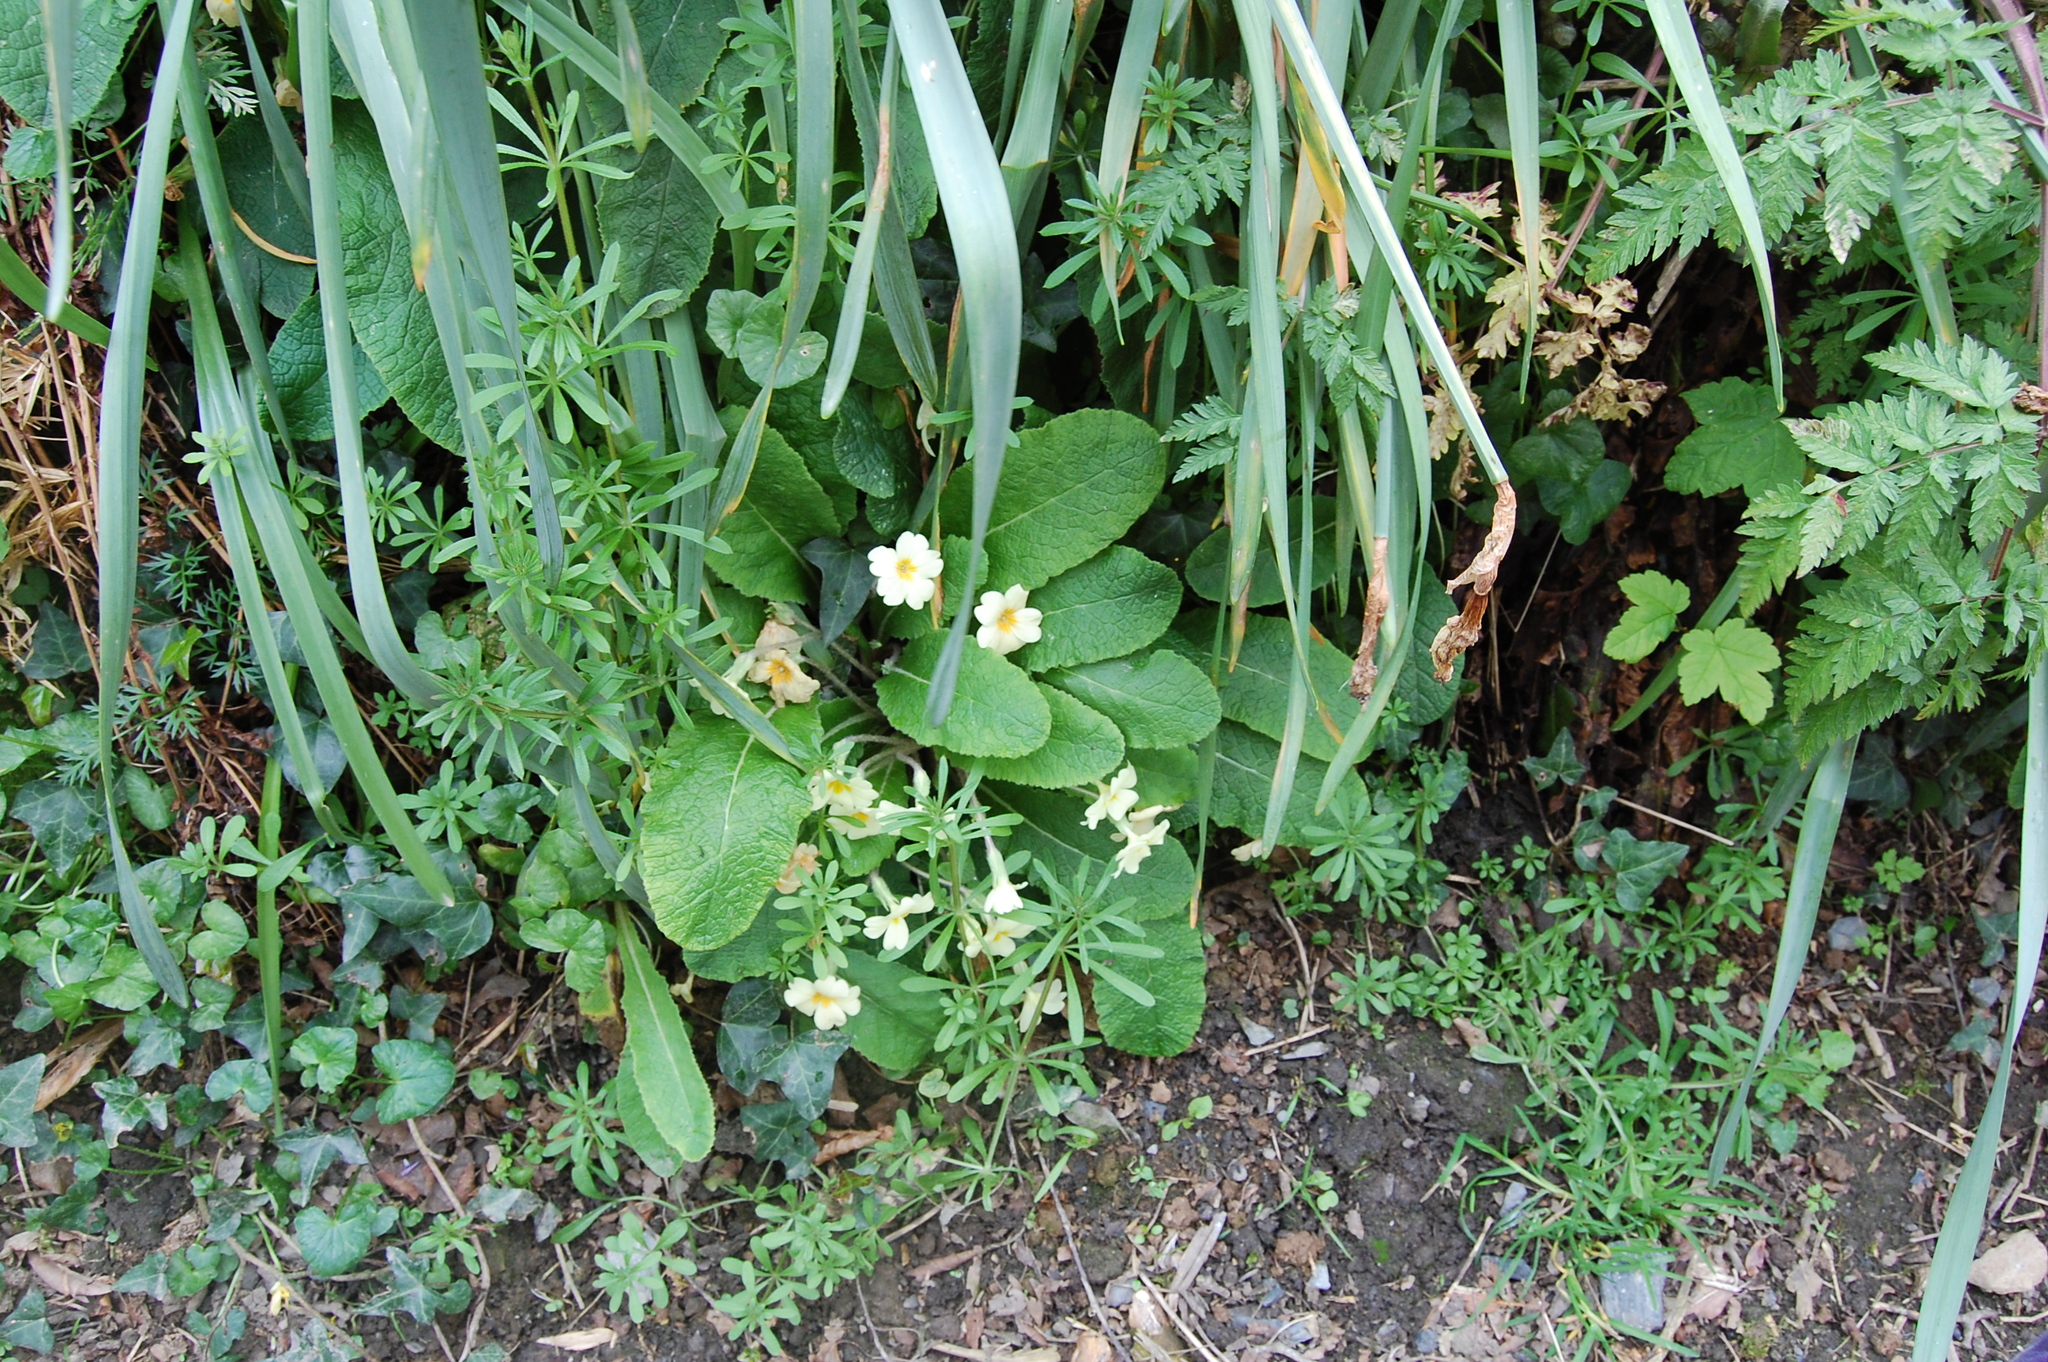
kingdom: Plantae
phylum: Tracheophyta
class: Magnoliopsida
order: Ericales
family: Primulaceae
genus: Primula
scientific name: Primula vulgaris
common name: Primrose
